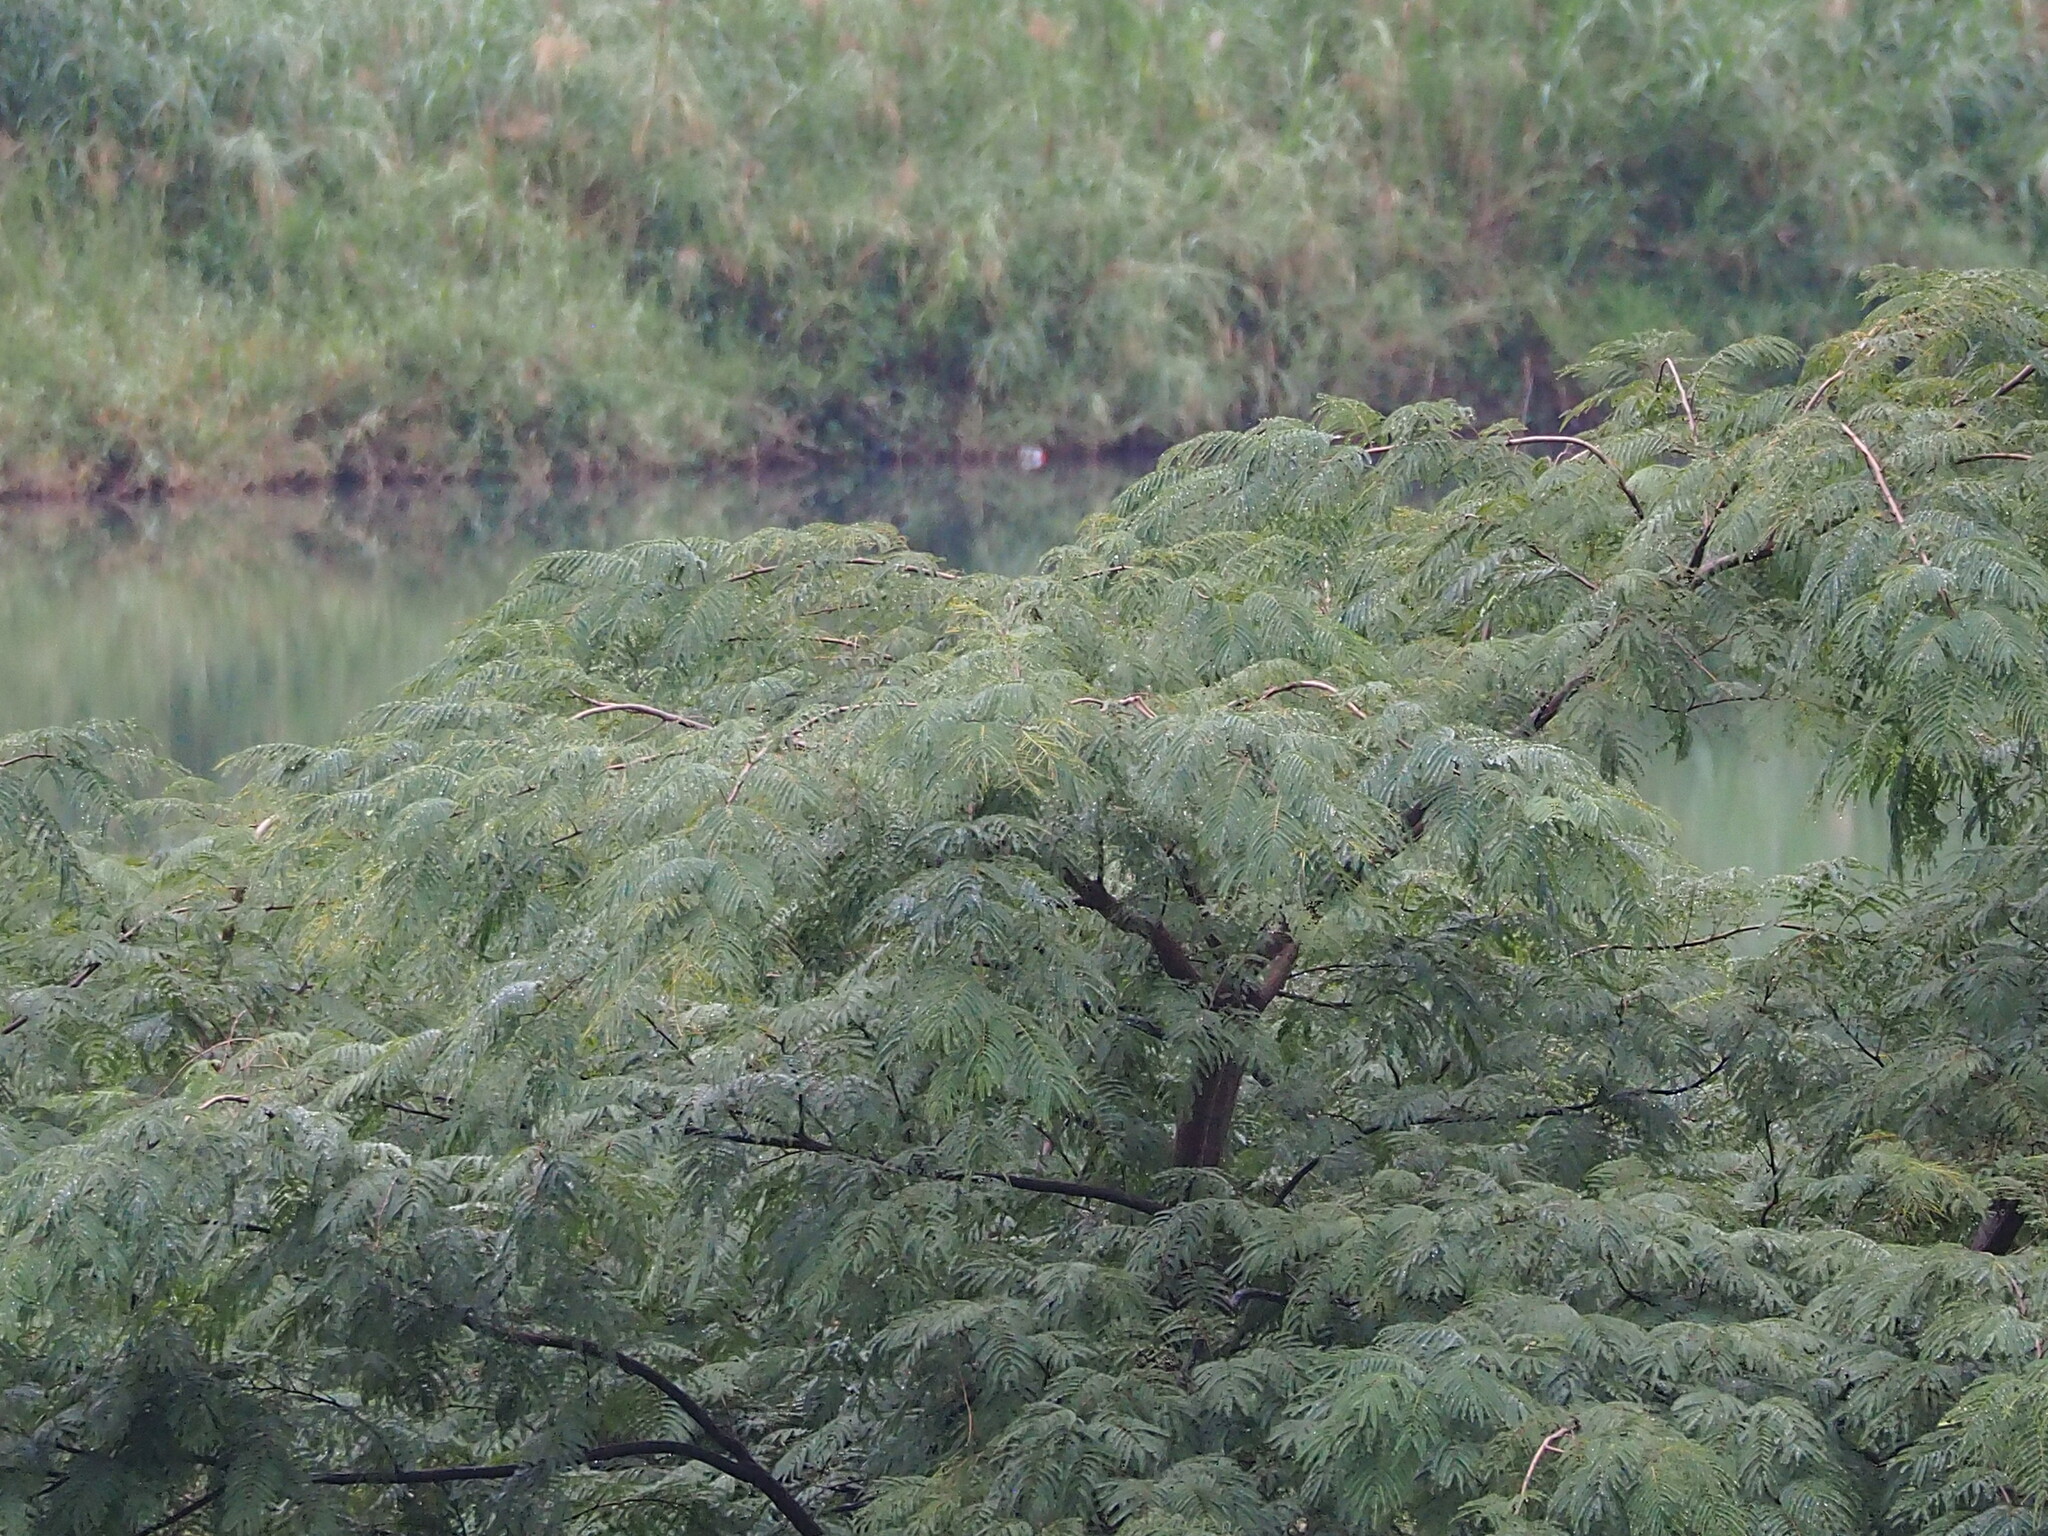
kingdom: Plantae
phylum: Tracheophyta
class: Magnoliopsida
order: Fabales
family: Fabaceae
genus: Albizia
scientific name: Albizia chinensis
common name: Chinese albizia
